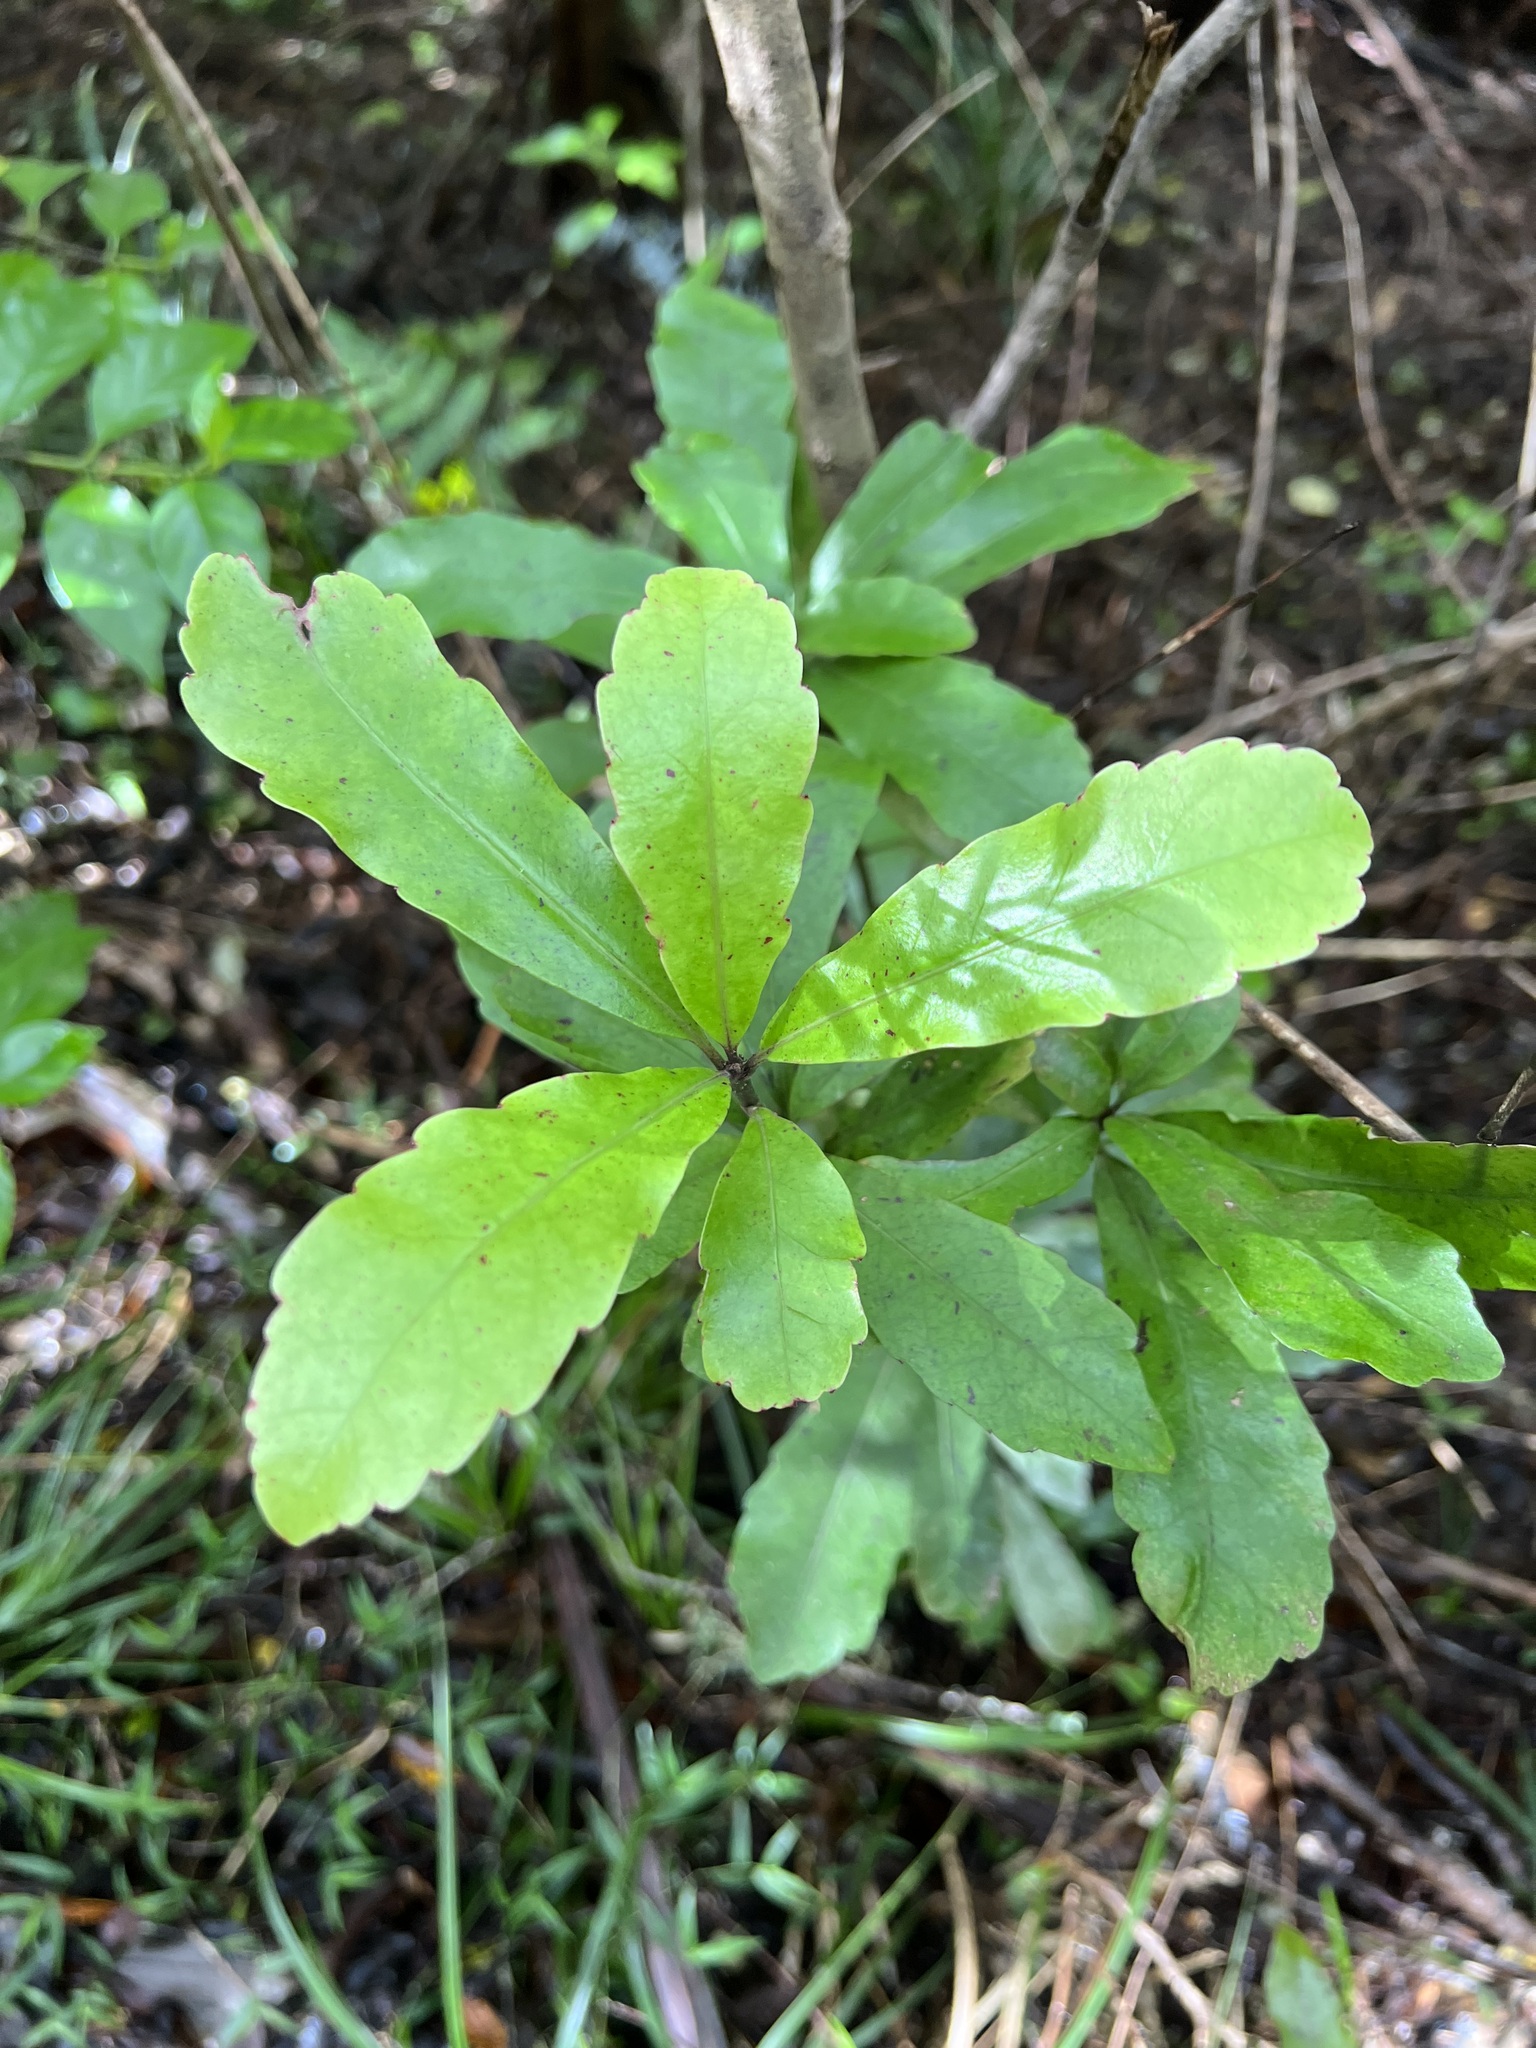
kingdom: Plantae
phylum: Tracheophyta
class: Magnoliopsida
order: Asterales
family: Alseuosmiaceae
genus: Alseuosmia
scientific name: Alseuosmia macrophylla
